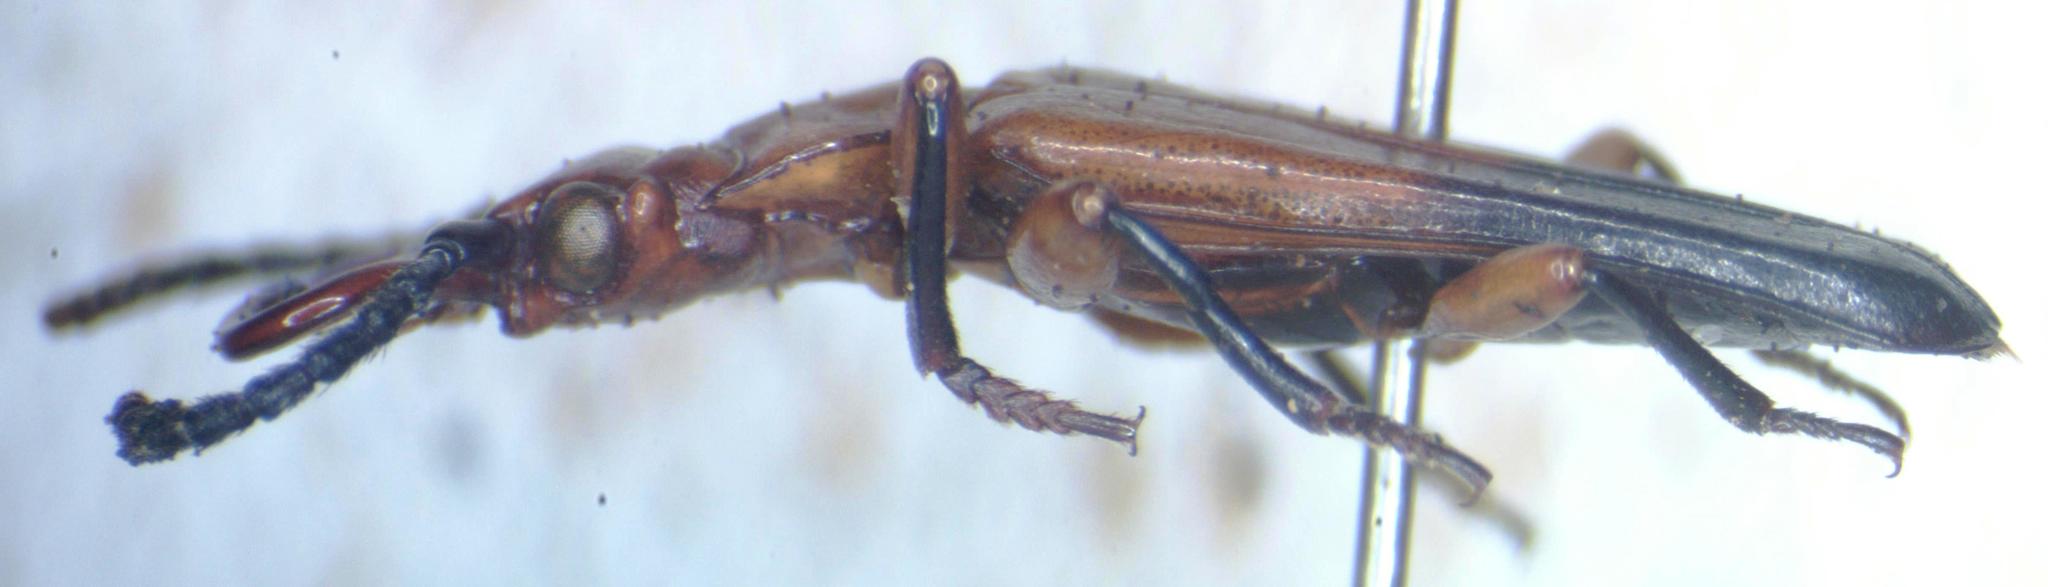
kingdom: Animalia
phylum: Arthropoda
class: Insecta
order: Coleoptera
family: Cucujidae
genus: Palaestes
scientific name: Palaestes
